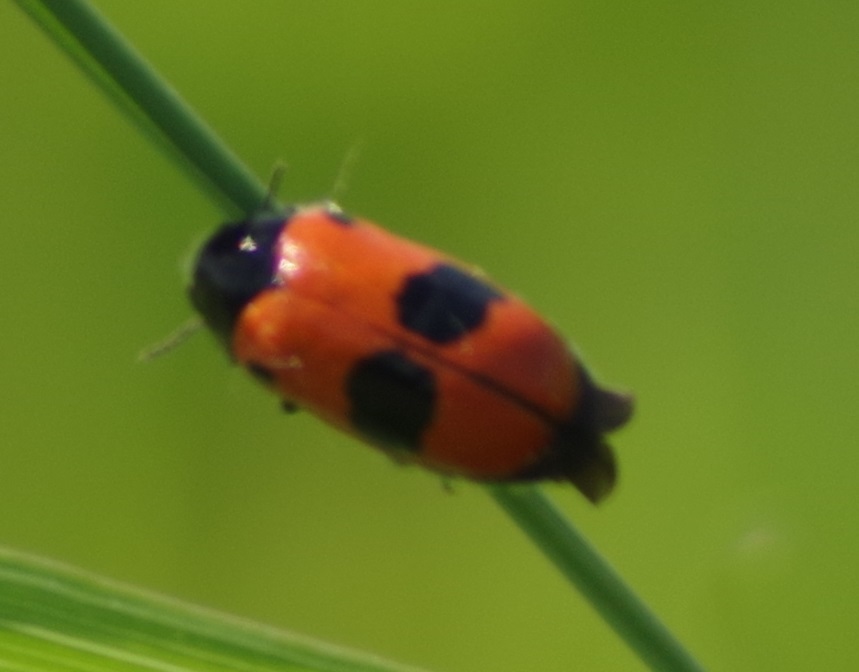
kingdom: Animalia
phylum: Arthropoda
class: Insecta
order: Coleoptera
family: Chrysomelidae
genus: Clytra
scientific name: Clytra laeviuscula
